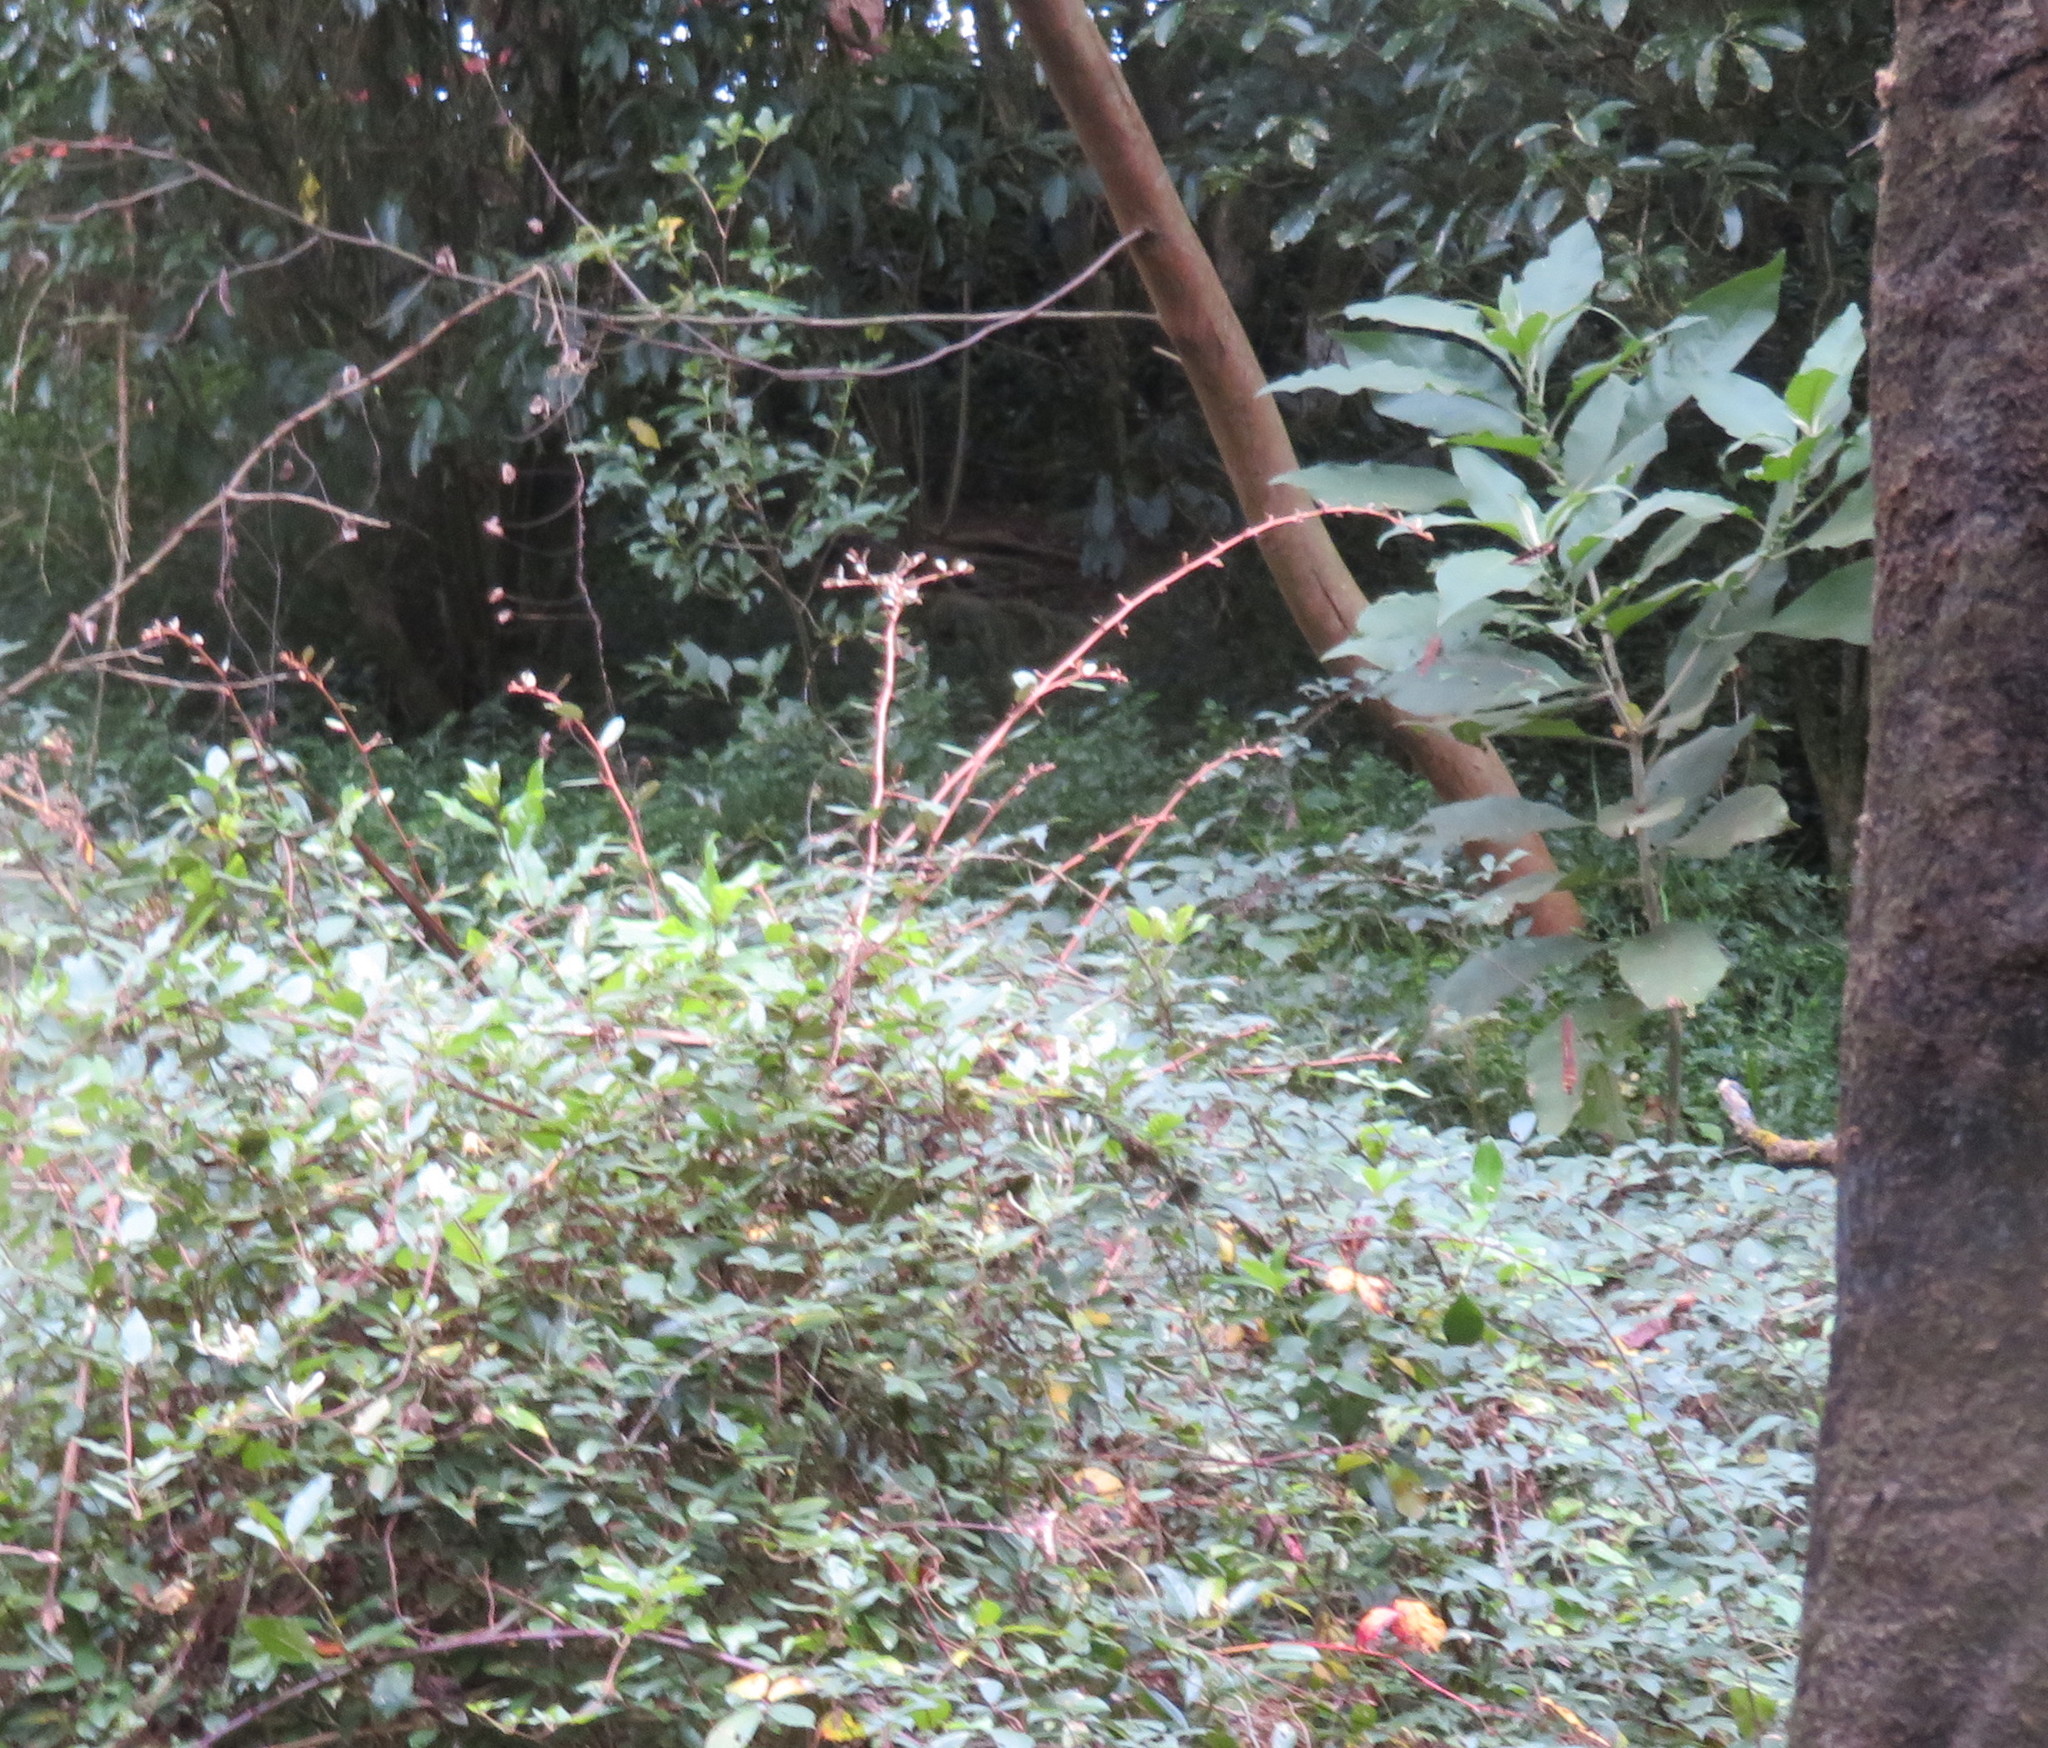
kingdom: Plantae
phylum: Tracheophyta
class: Magnoliopsida
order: Rosales
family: Elaeagnaceae
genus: Elaeagnus
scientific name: Elaeagnus reflexa
